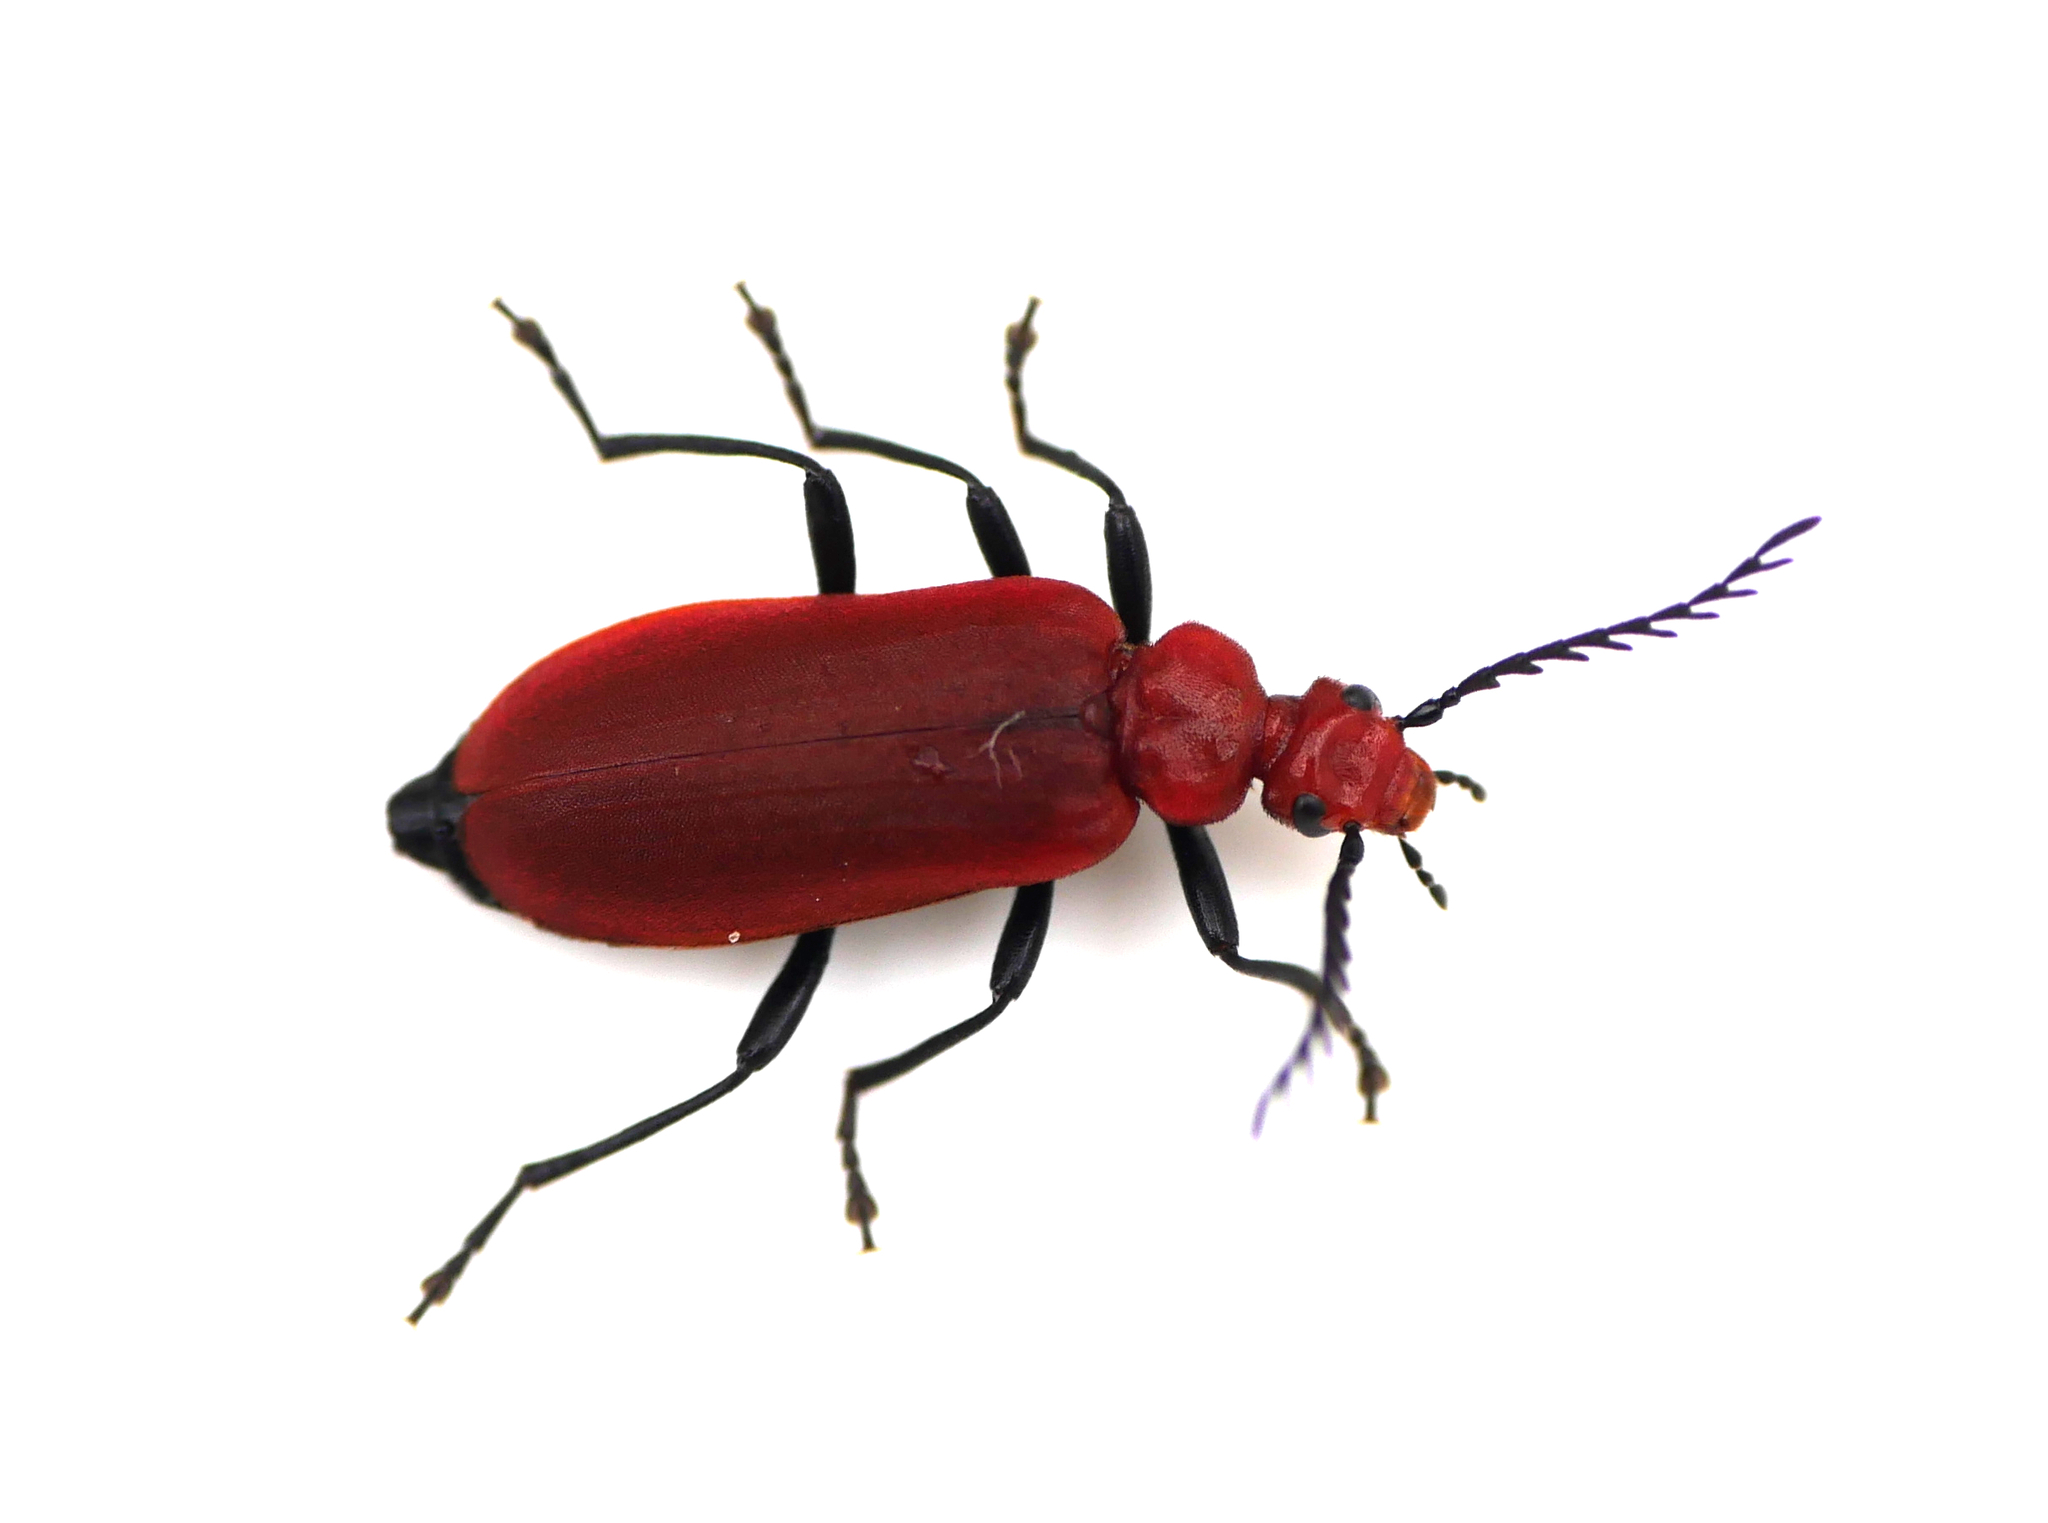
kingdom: Animalia
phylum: Arthropoda
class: Insecta
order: Coleoptera
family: Pyrochroidae
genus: Pyrochroa
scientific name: Pyrochroa serraticornis
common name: Red-headed cardinal beetle
